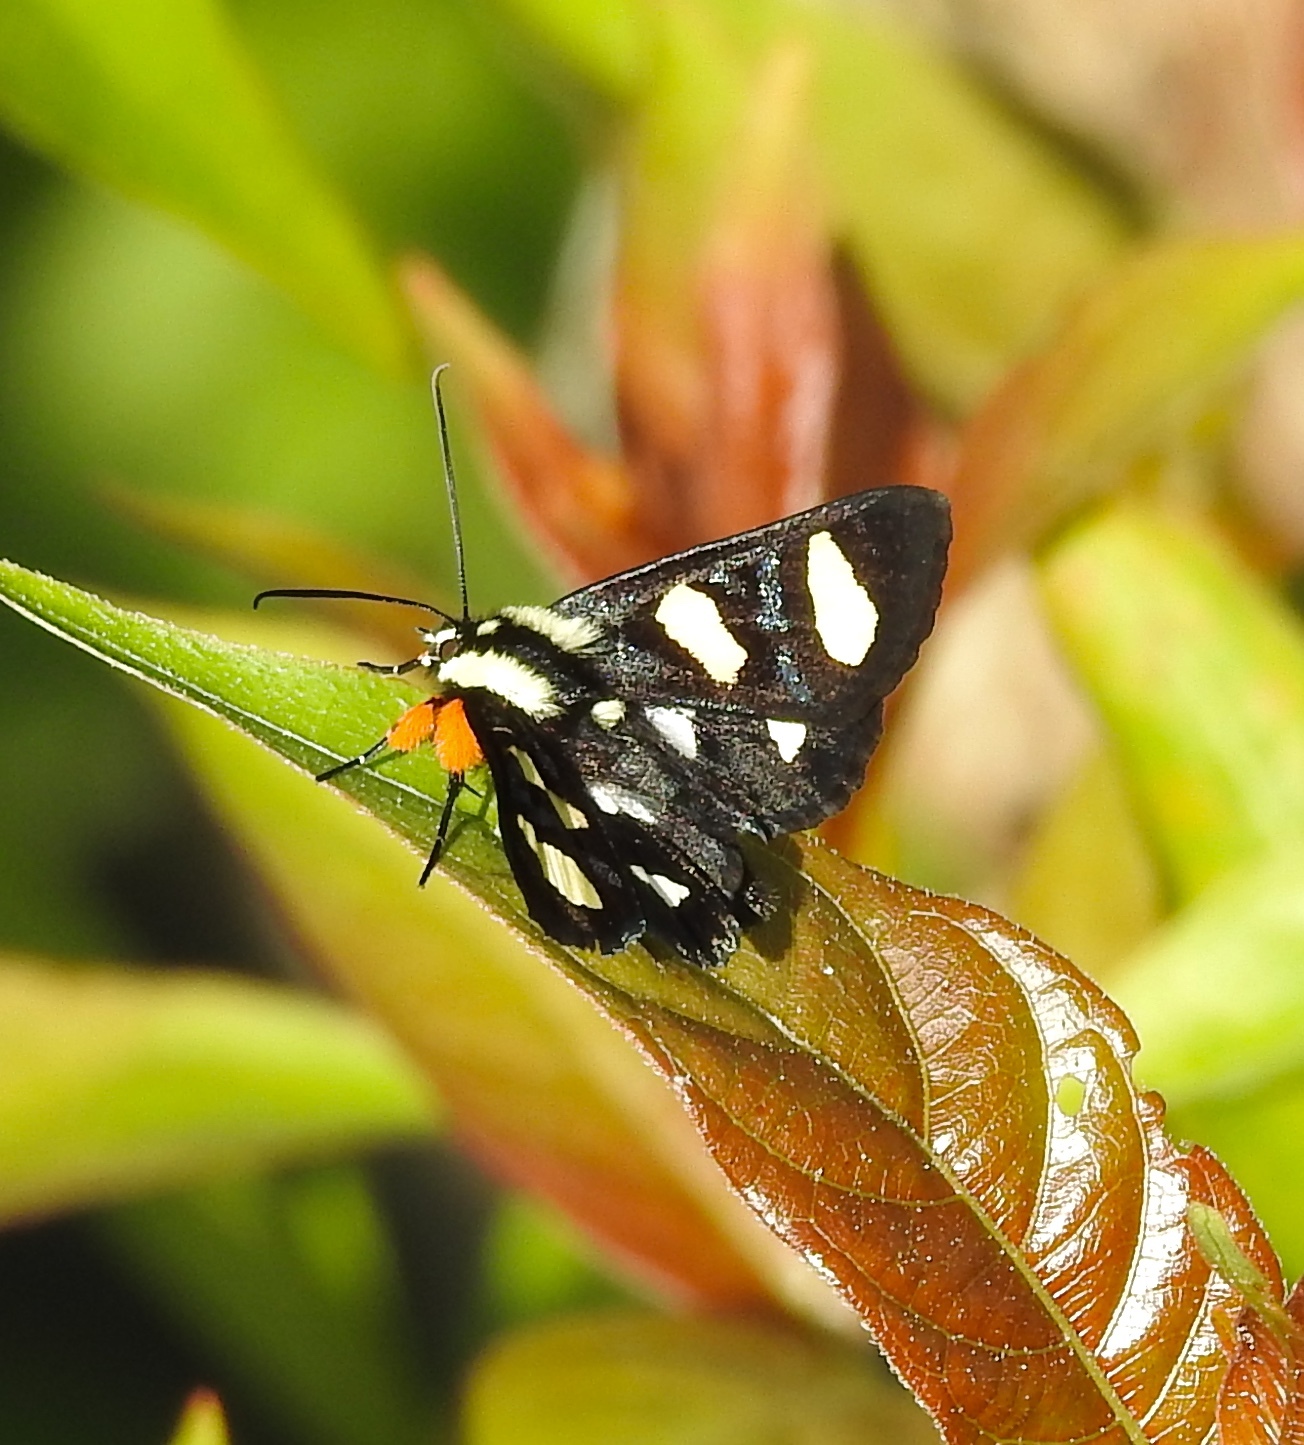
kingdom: Animalia
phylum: Arthropoda
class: Insecta
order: Lepidoptera
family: Noctuidae
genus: Alypia
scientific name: Alypia wittfeldii
